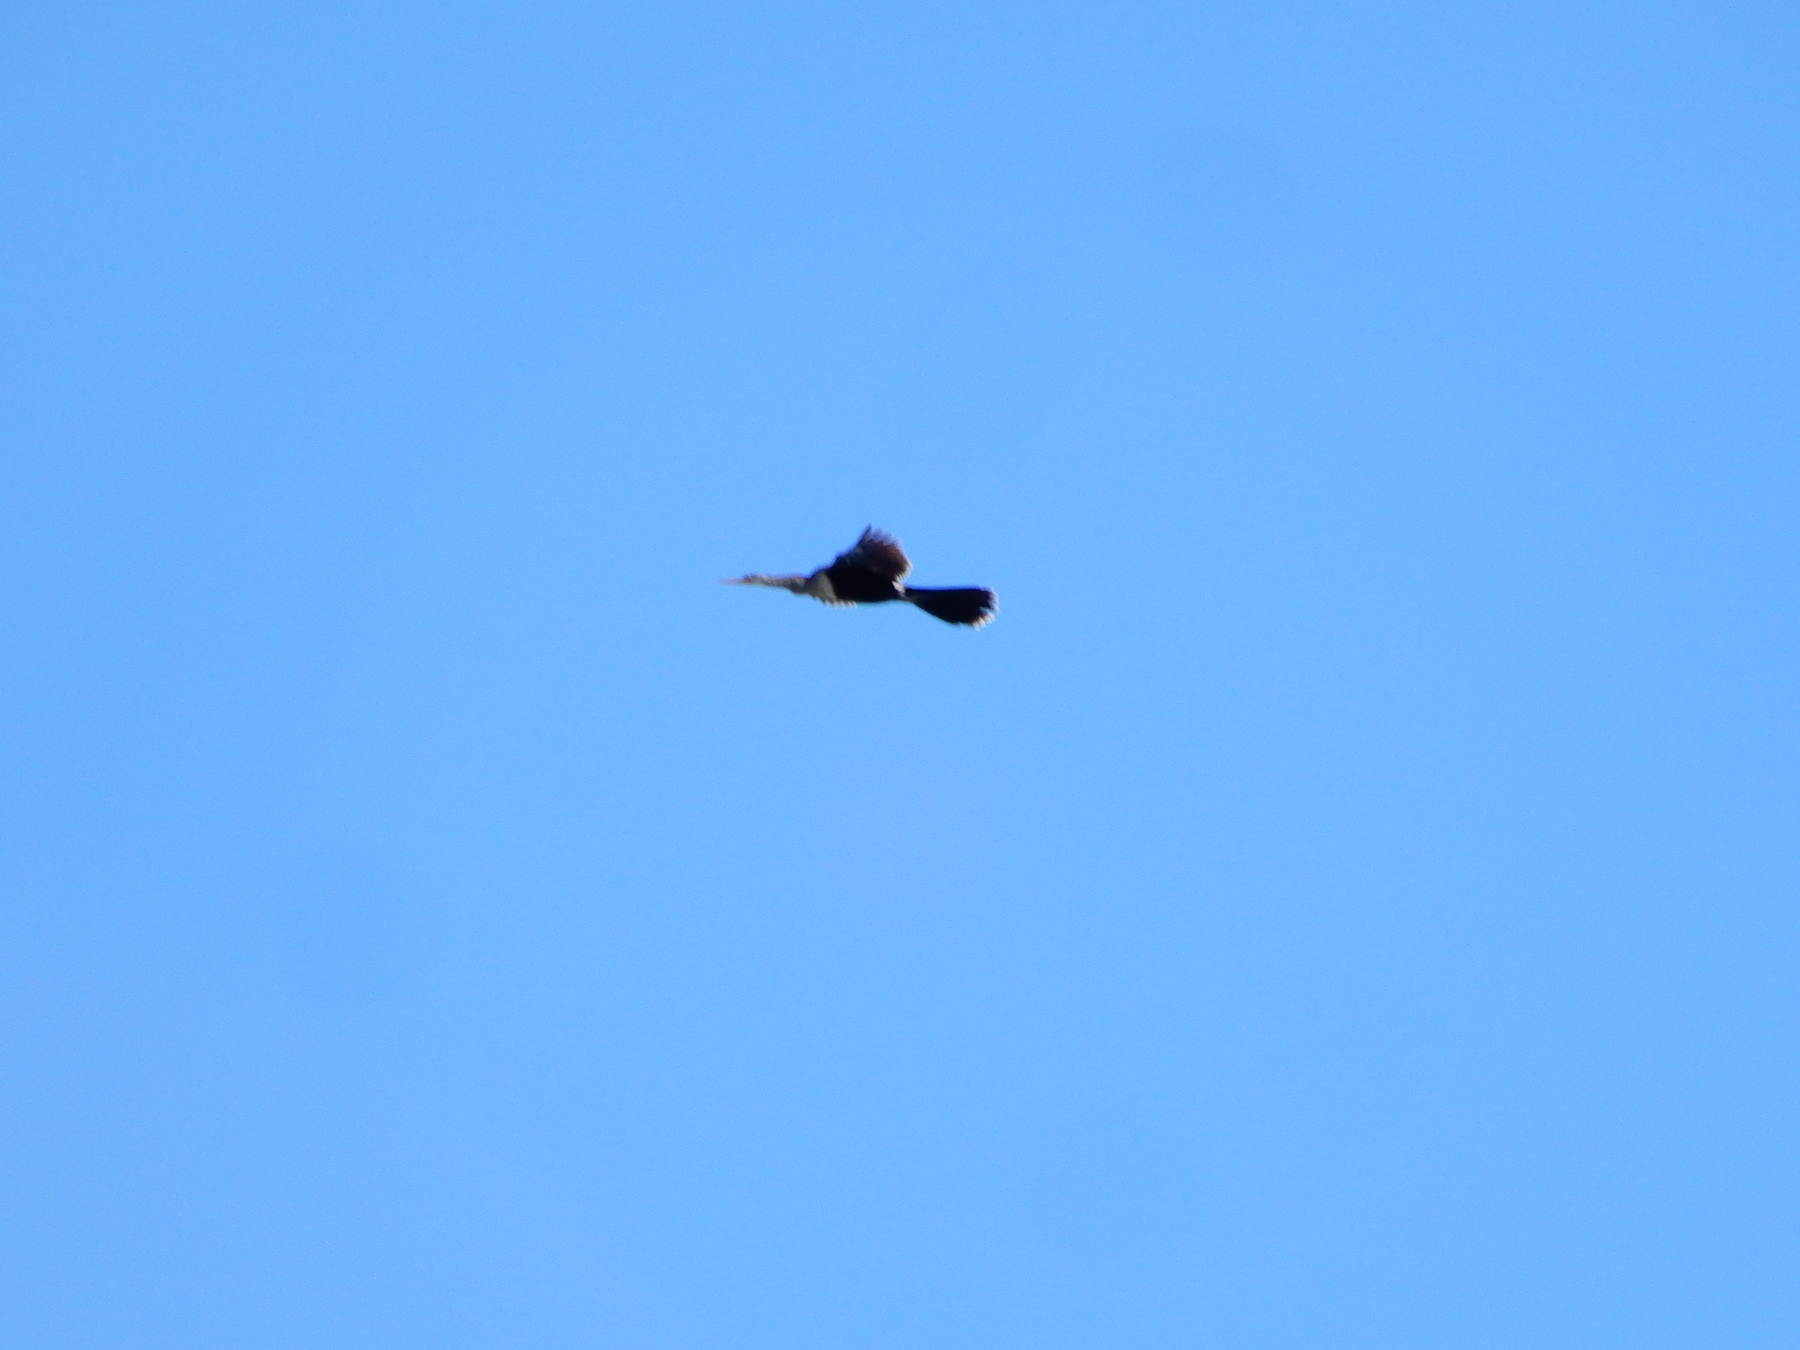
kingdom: Animalia
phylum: Chordata
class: Aves
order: Suliformes
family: Anhingidae
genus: Anhinga
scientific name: Anhinga anhinga
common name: Anhinga
